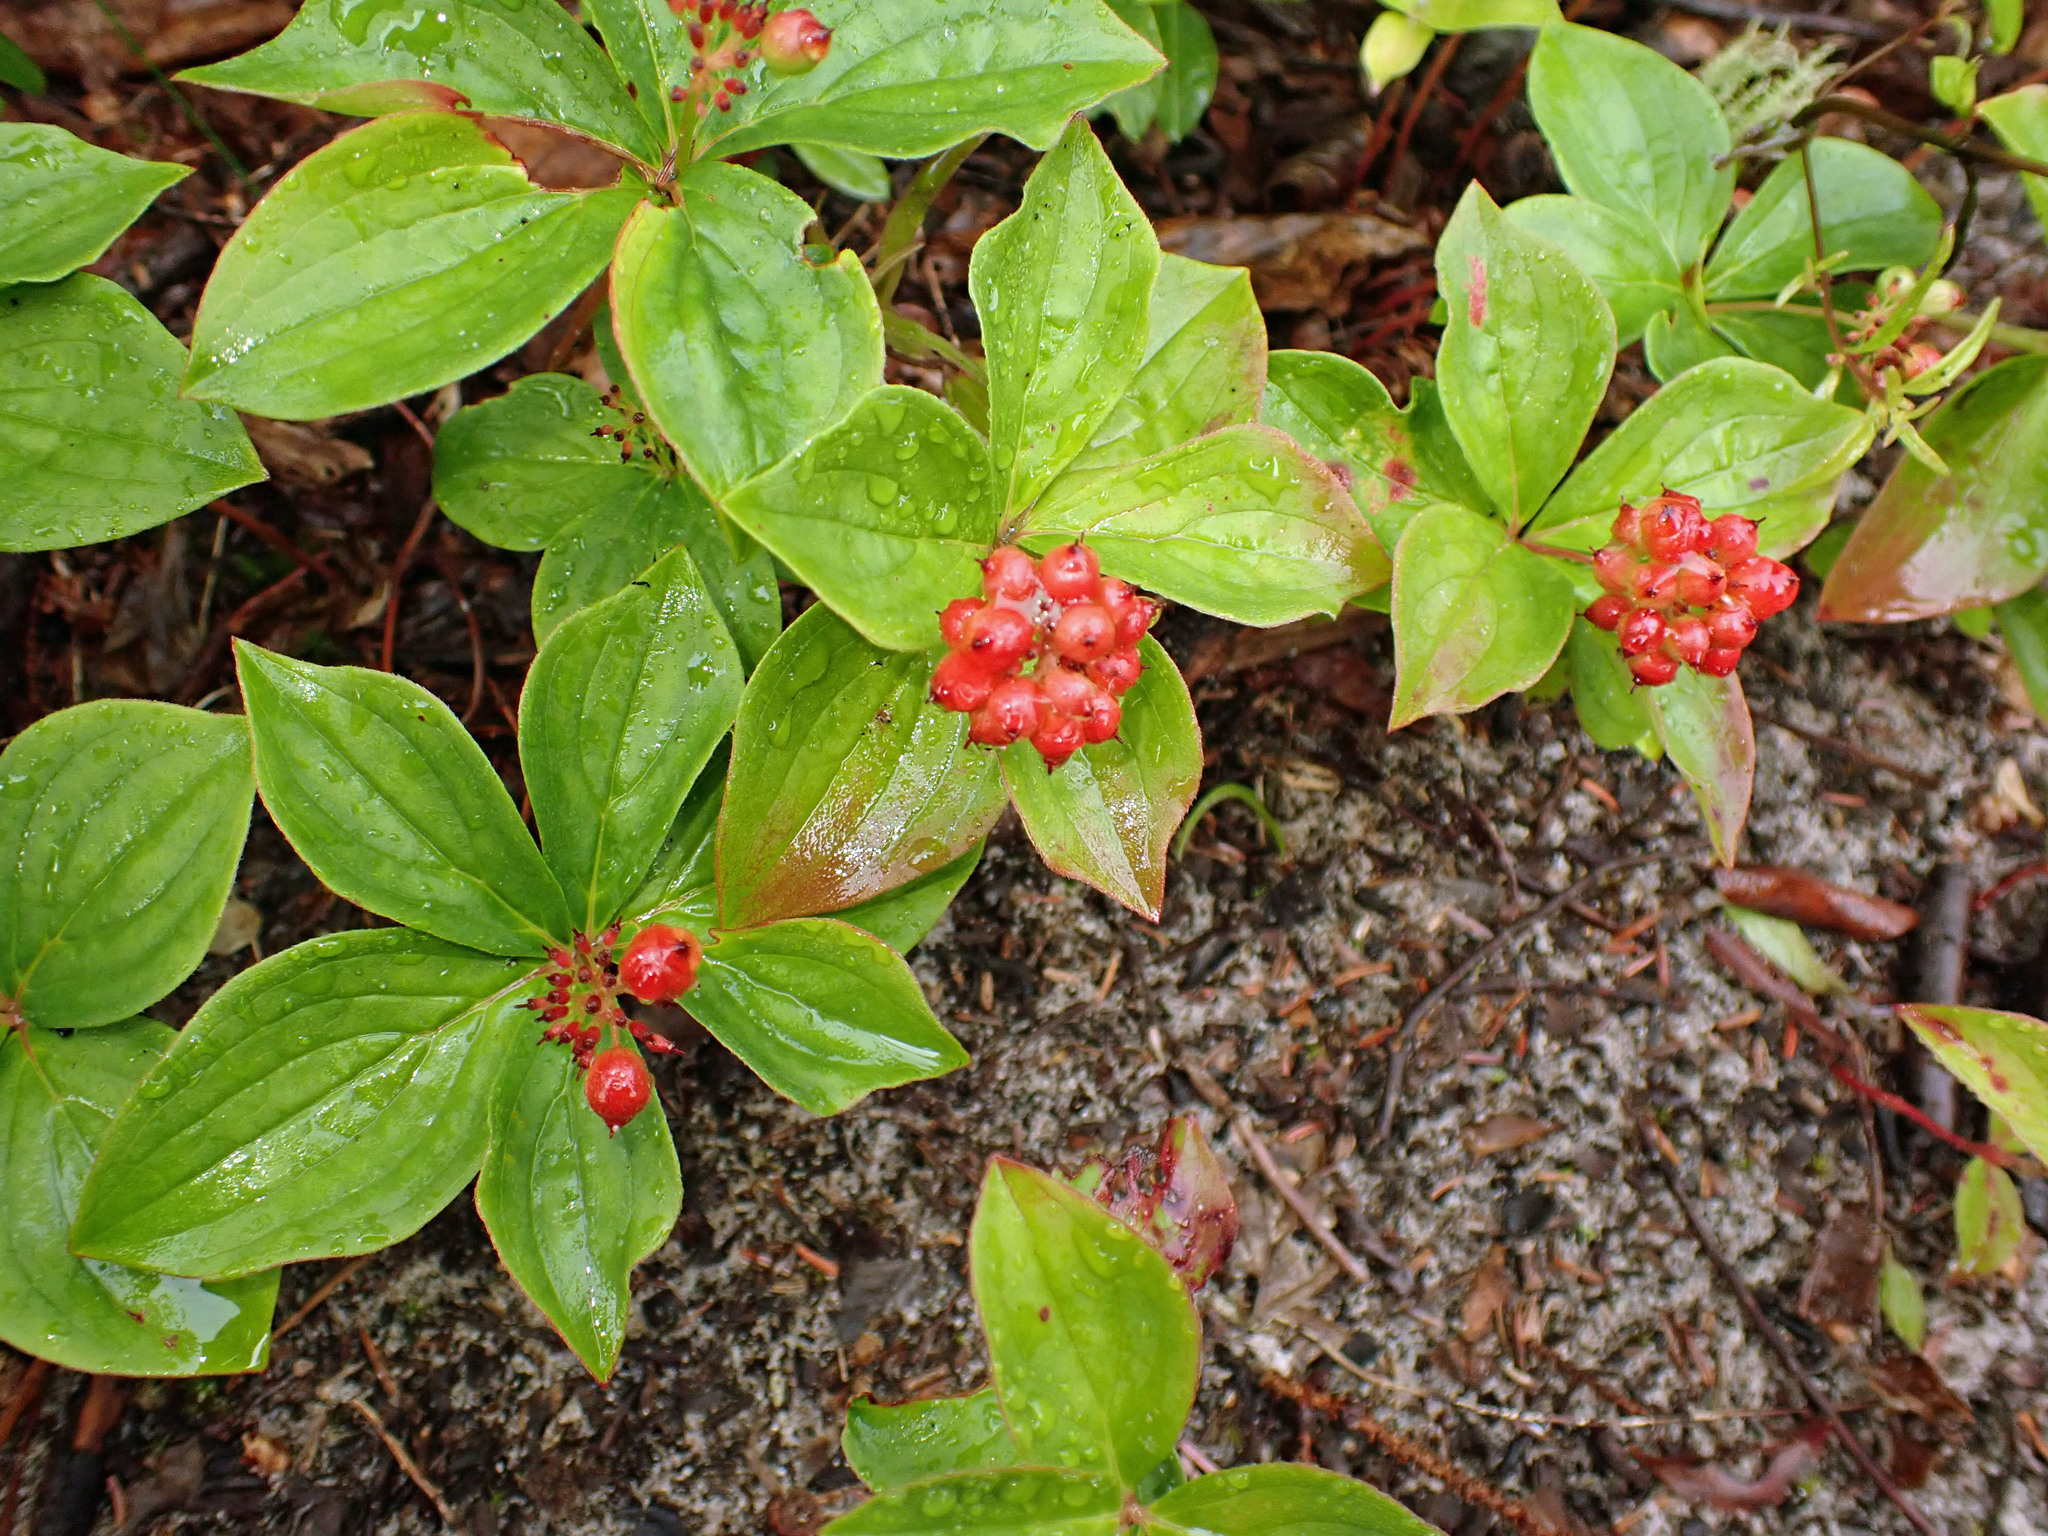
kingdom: Plantae
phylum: Tracheophyta
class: Magnoliopsida
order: Cornales
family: Cornaceae
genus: Cornus
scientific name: Cornus canadensis
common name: Creeping dogwood
